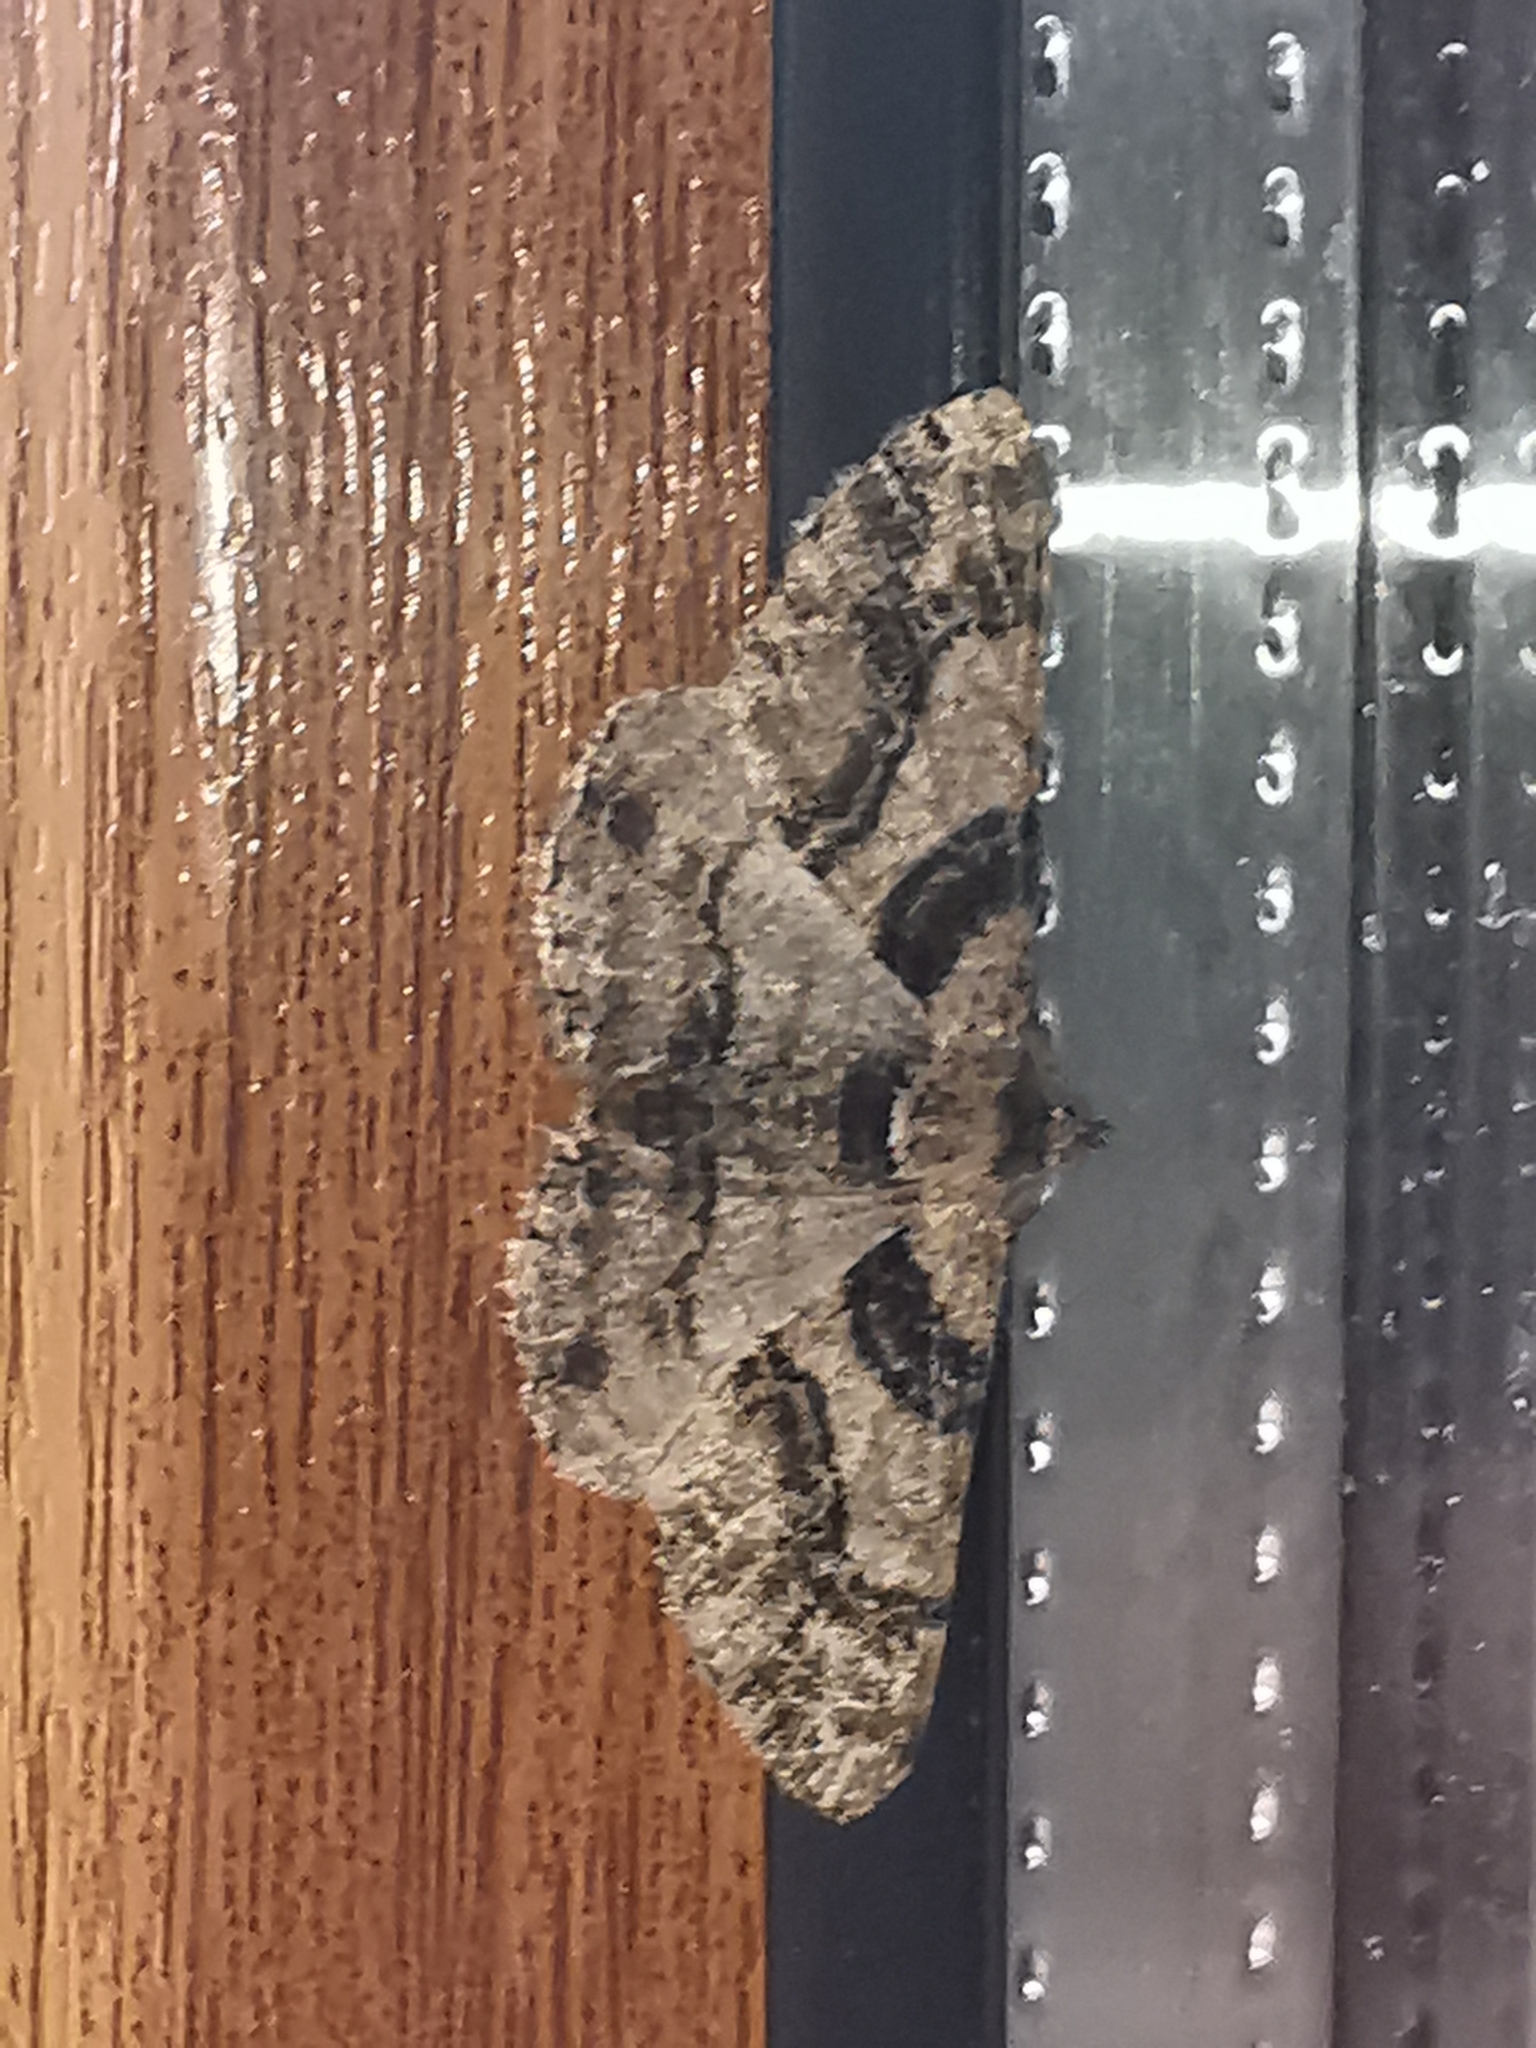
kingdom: Animalia
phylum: Arthropoda
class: Insecta
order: Lepidoptera
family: Geometridae
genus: Cleora
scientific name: Cleora cinctaria
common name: Ringed carpet
